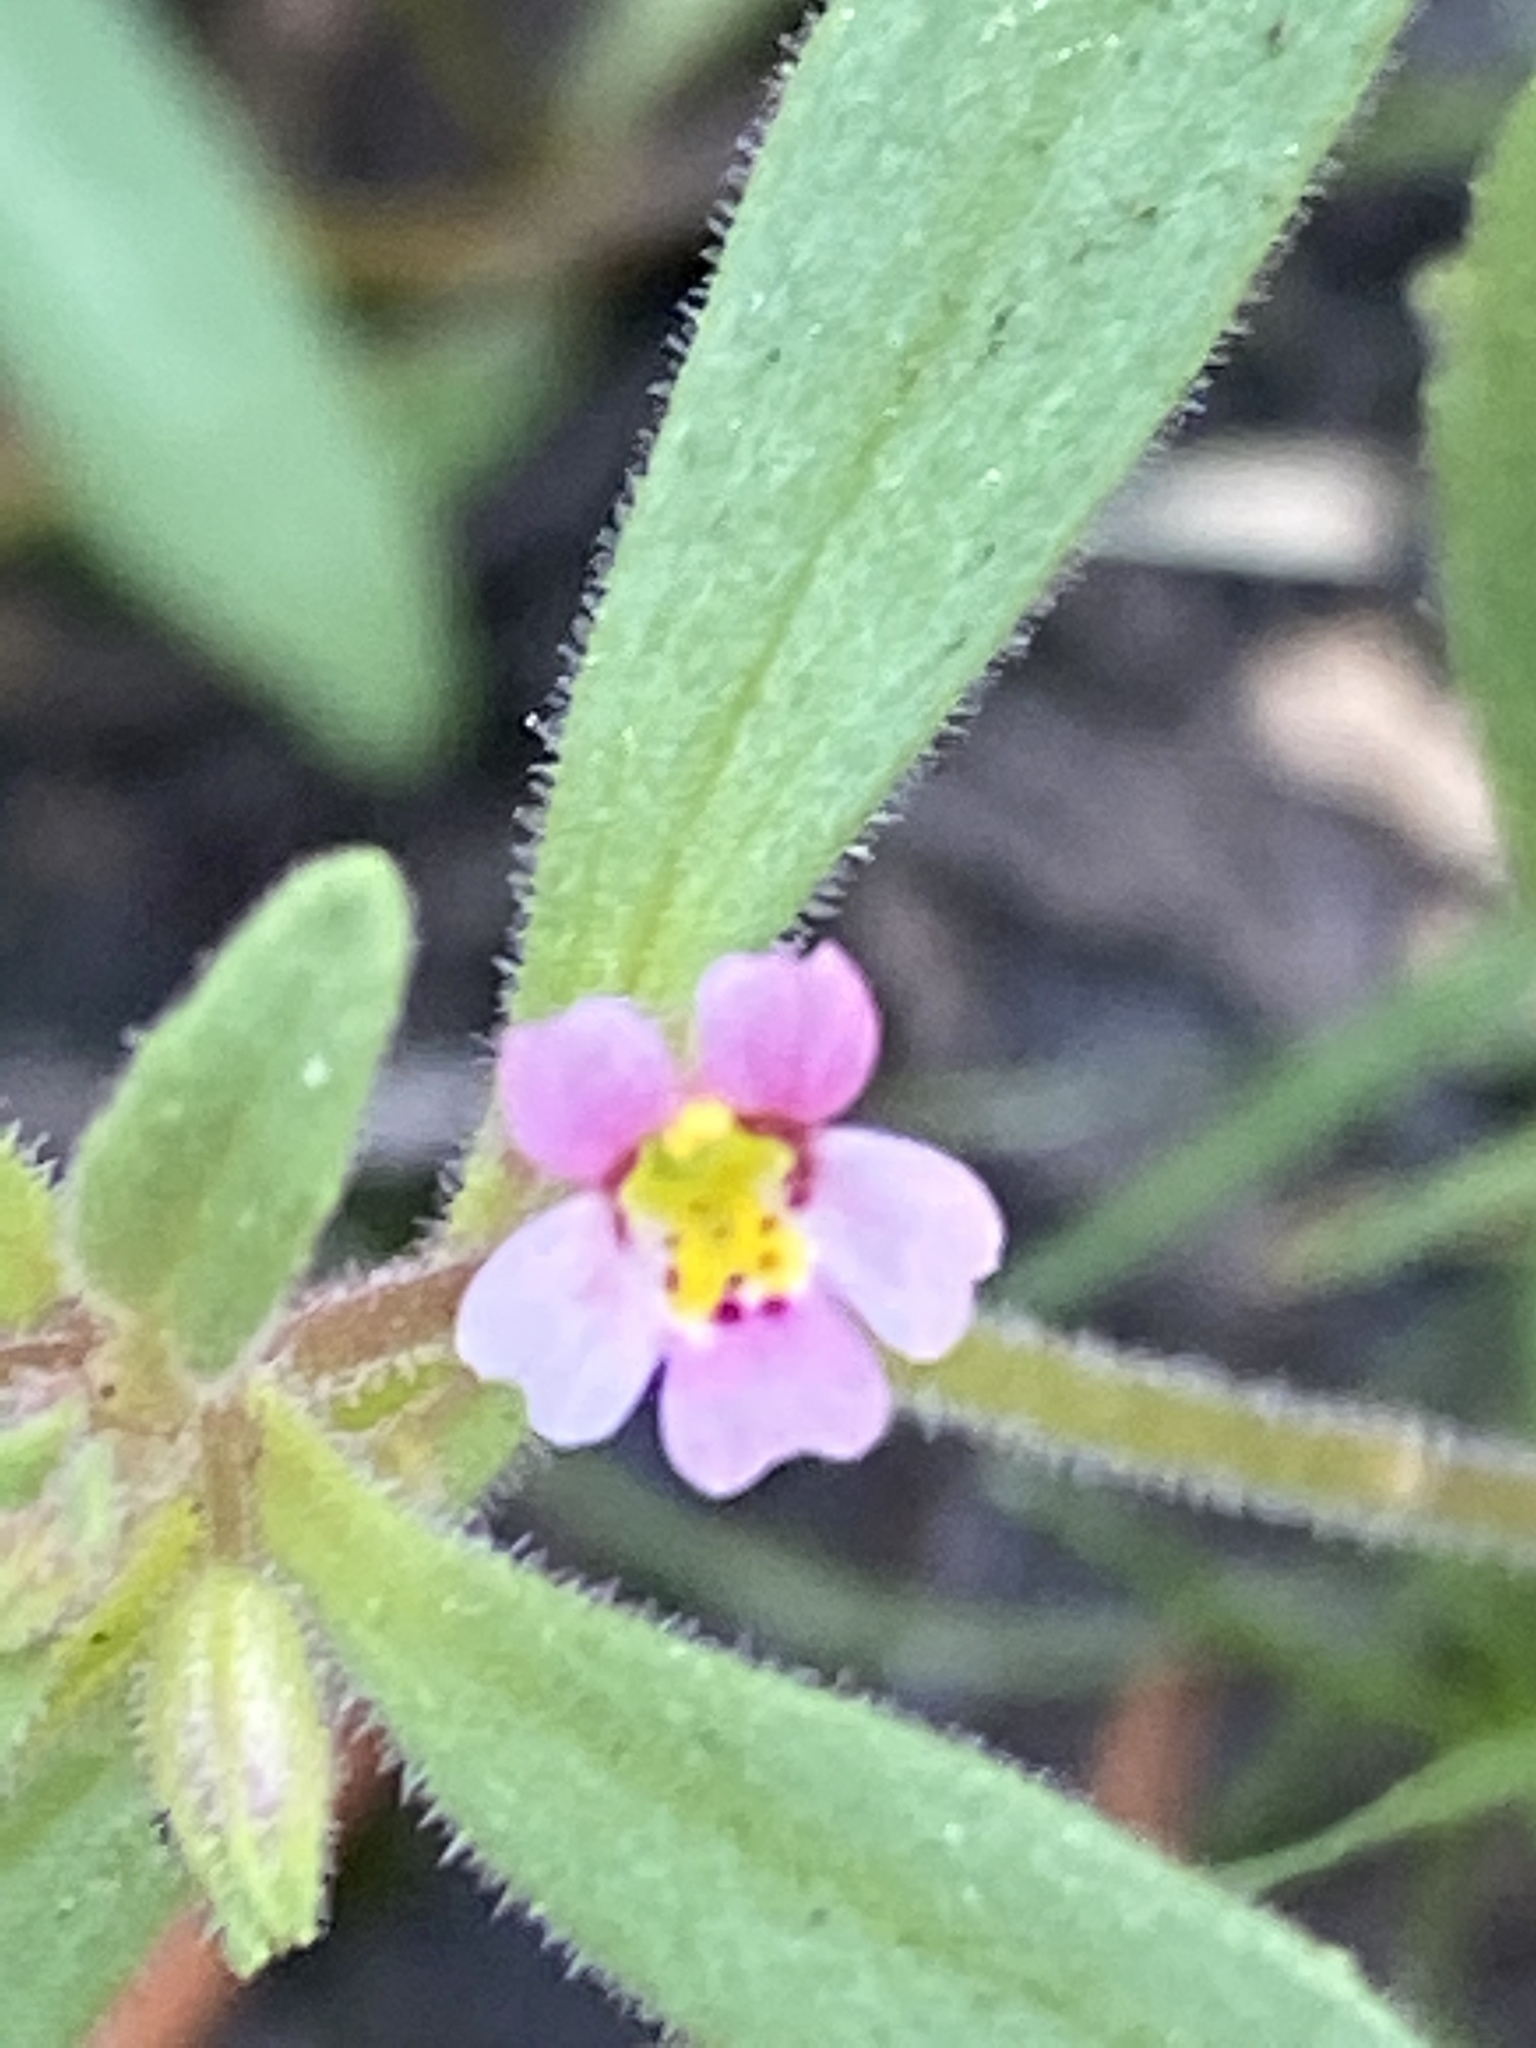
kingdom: Plantae
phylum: Tracheophyta
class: Magnoliopsida
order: Lamiales
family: Phrymaceae
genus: Erythranthe
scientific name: Erythranthe breweri
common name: Brewer's monkeyflower
